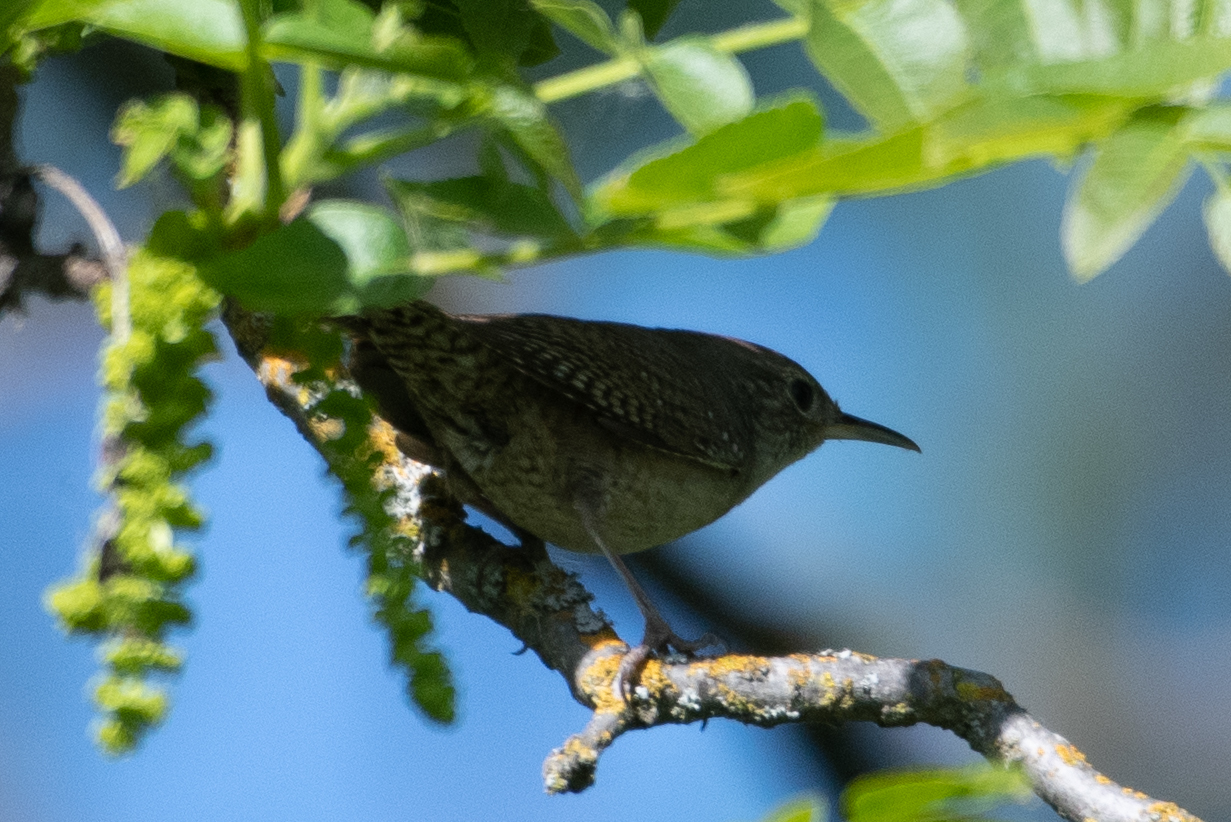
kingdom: Animalia
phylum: Chordata
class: Aves
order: Passeriformes
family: Troglodytidae
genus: Troglodytes
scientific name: Troglodytes aedon
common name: House wren
